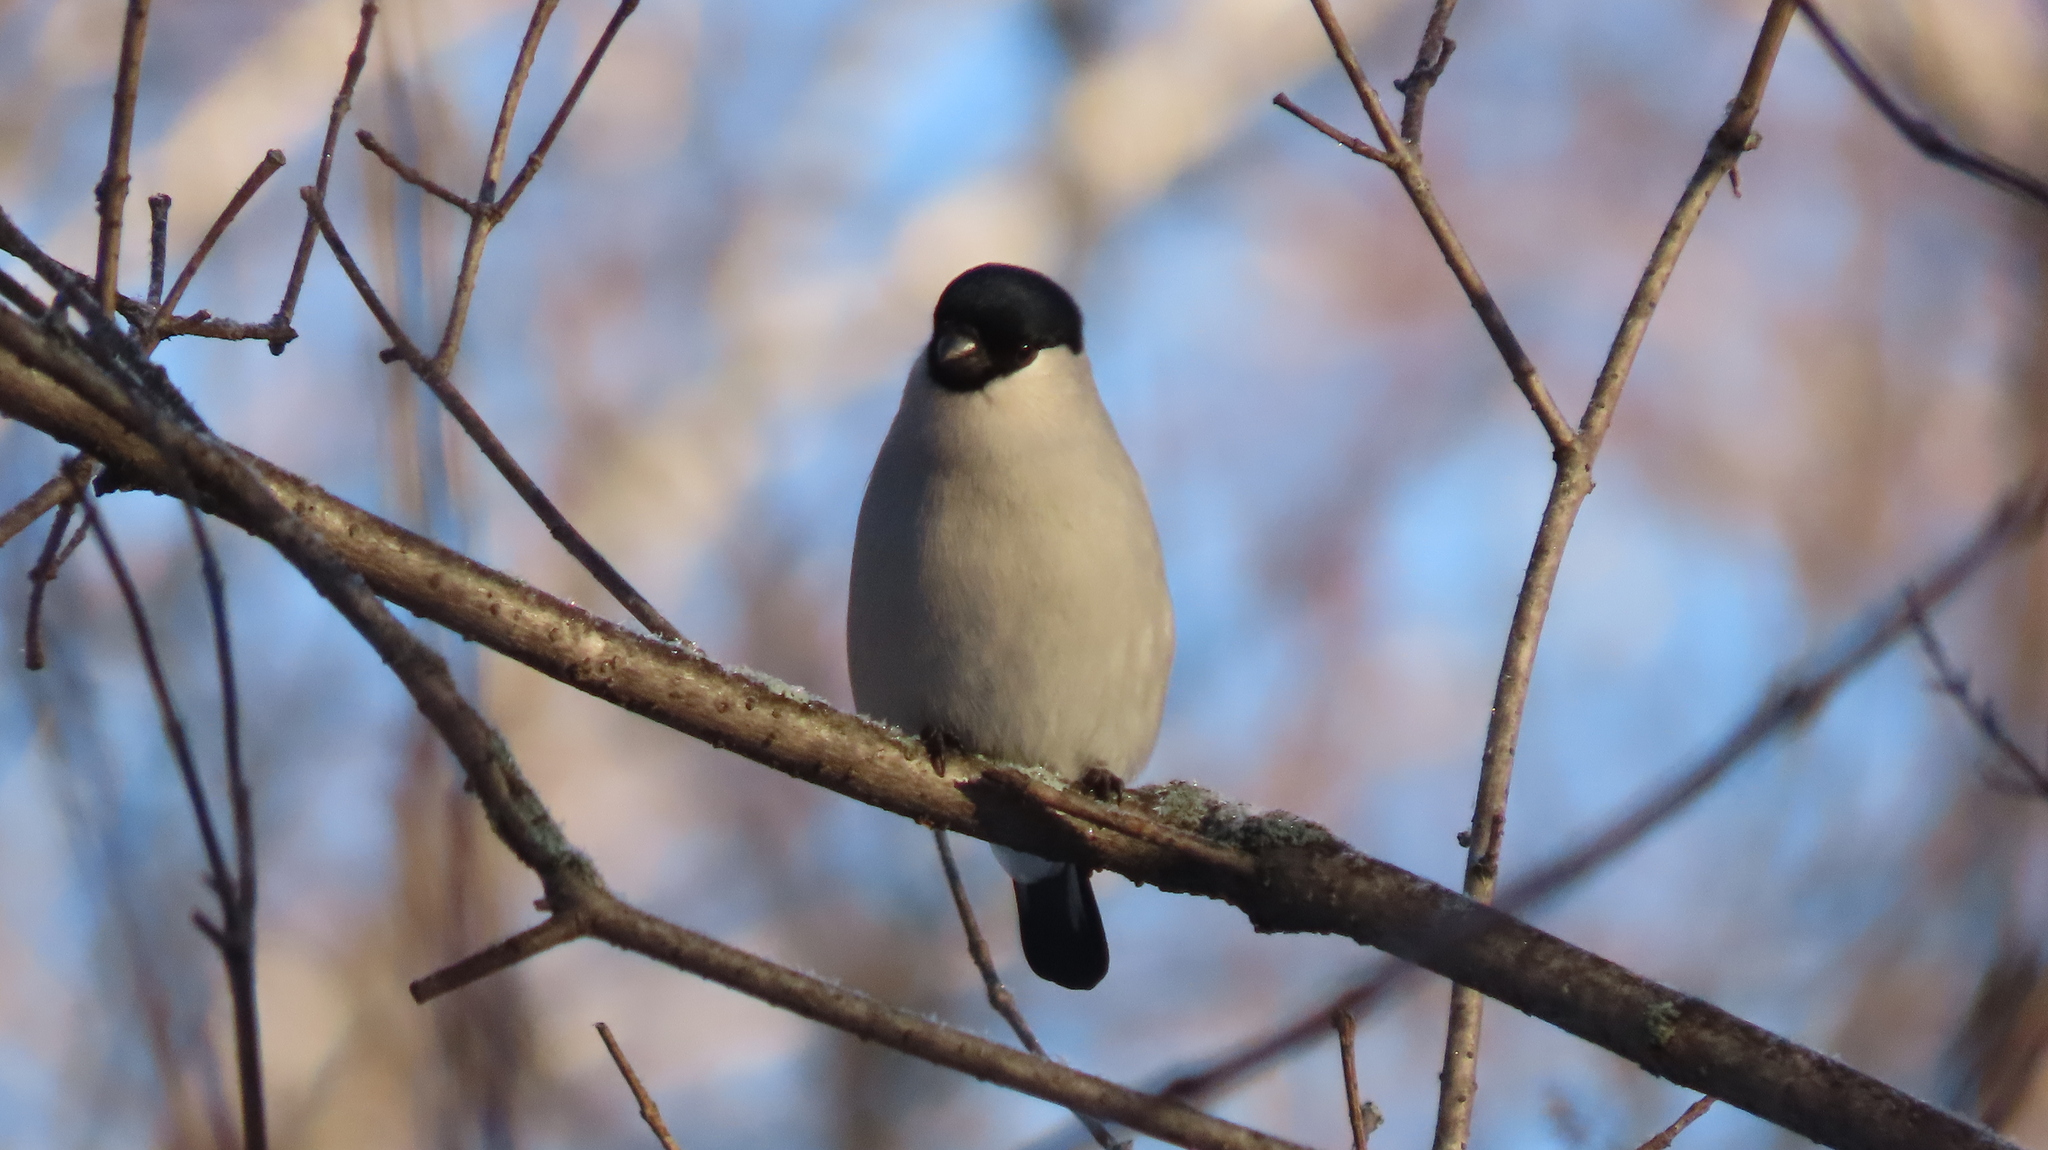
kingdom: Animalia
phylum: Chordata
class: Aves
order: Passeriformes
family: Fringillidae
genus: Pyrrhula
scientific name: Pyrrhula pyrrhula
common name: Eurasian bullfinch
